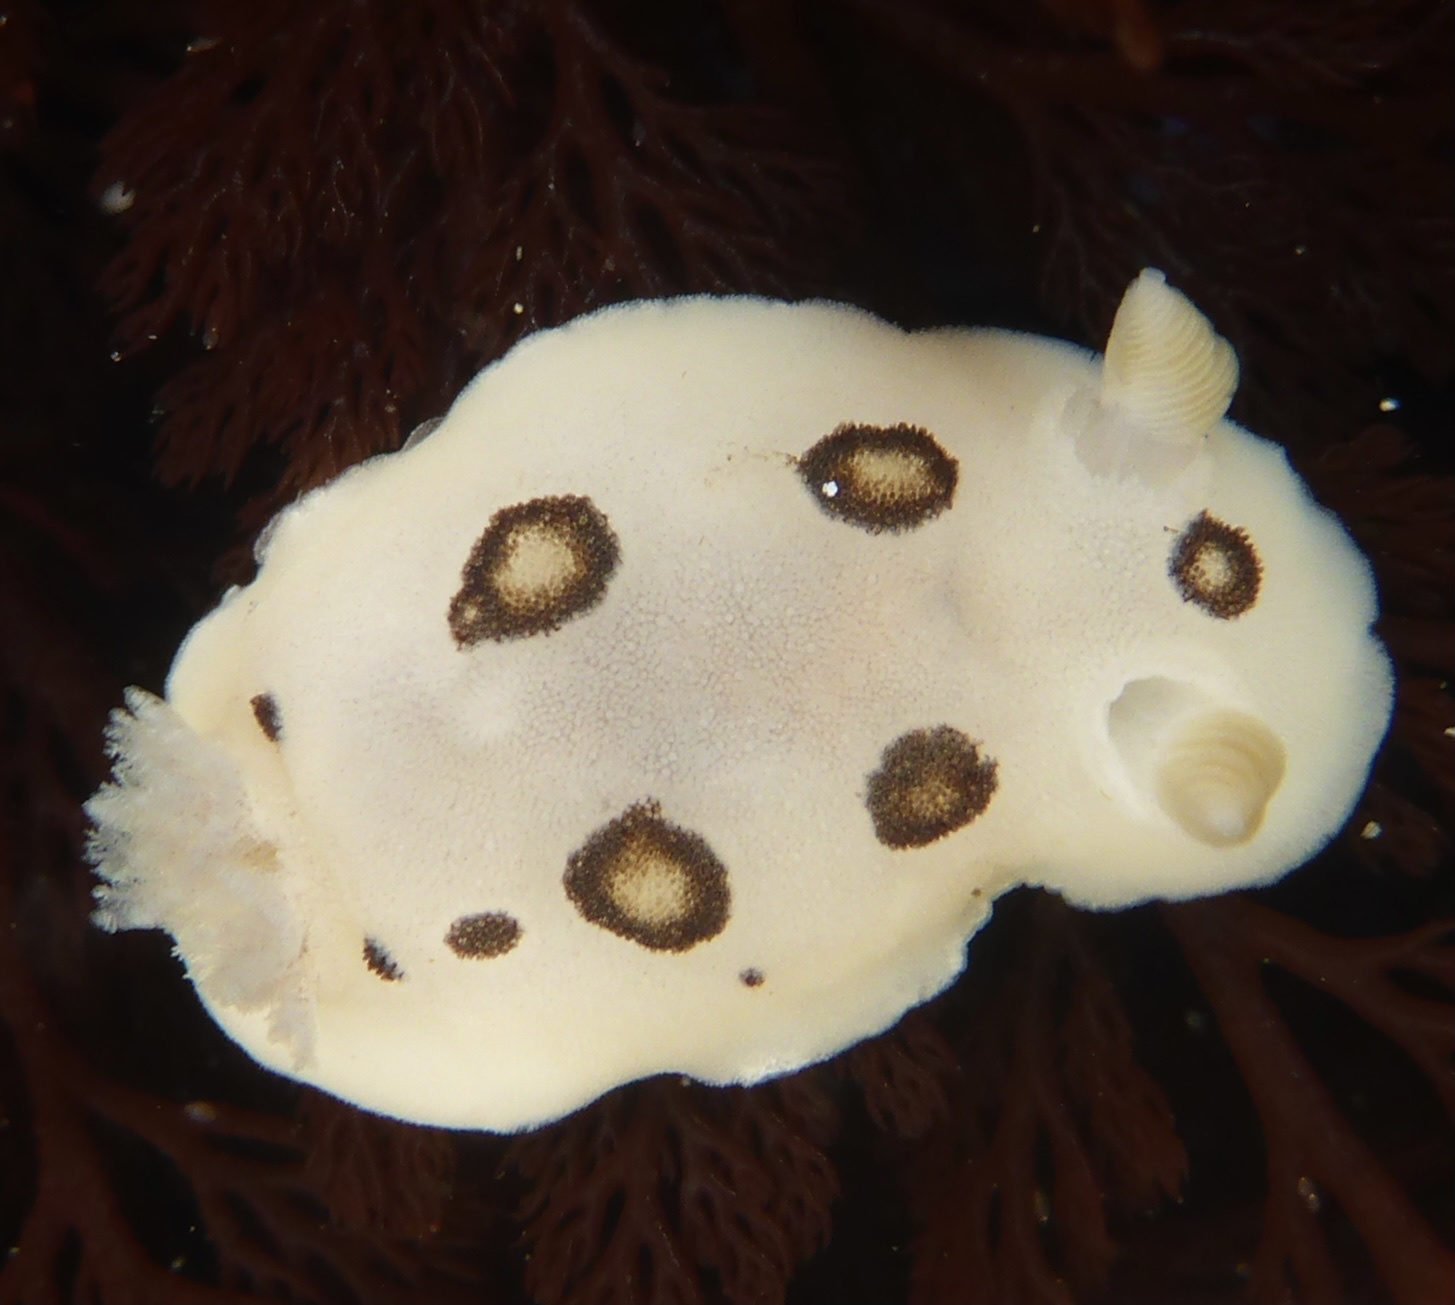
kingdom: Animalia
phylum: Mollusca
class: Gastropoda
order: Nudibranchia
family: Discodorididae
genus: Diaulula
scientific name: Diaulula sandiegensis
